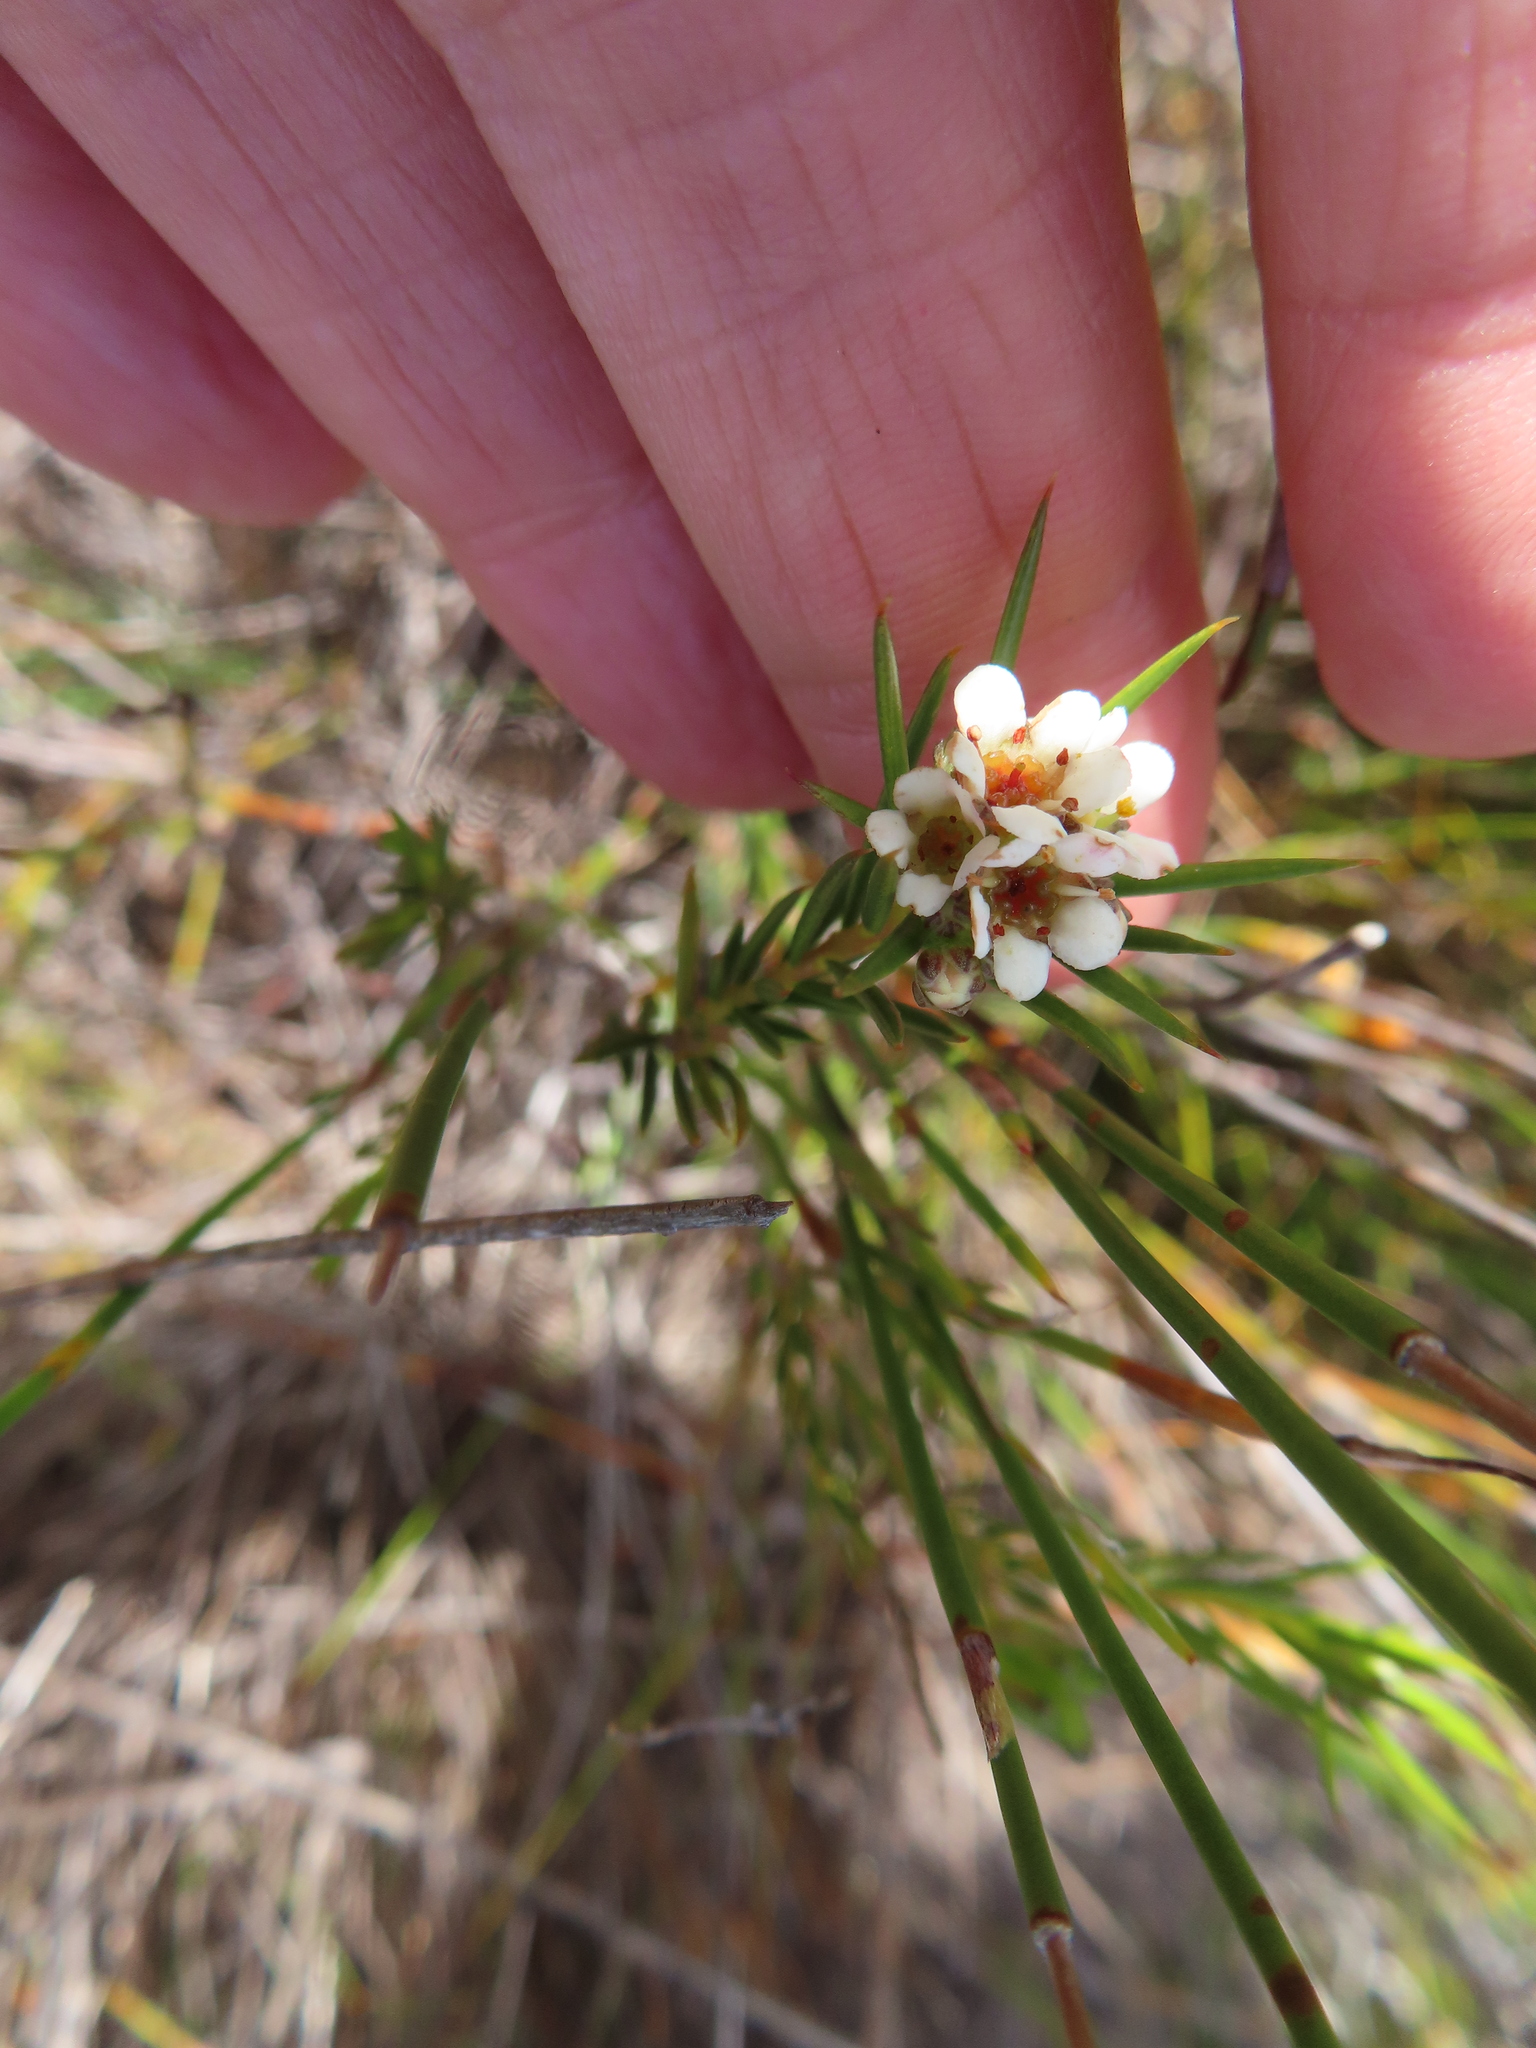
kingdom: Plantae
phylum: Tracheophyta
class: Magnoliopsida
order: Sapindales
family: Rutaceae
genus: Diosma
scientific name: Diosma hirsuta
